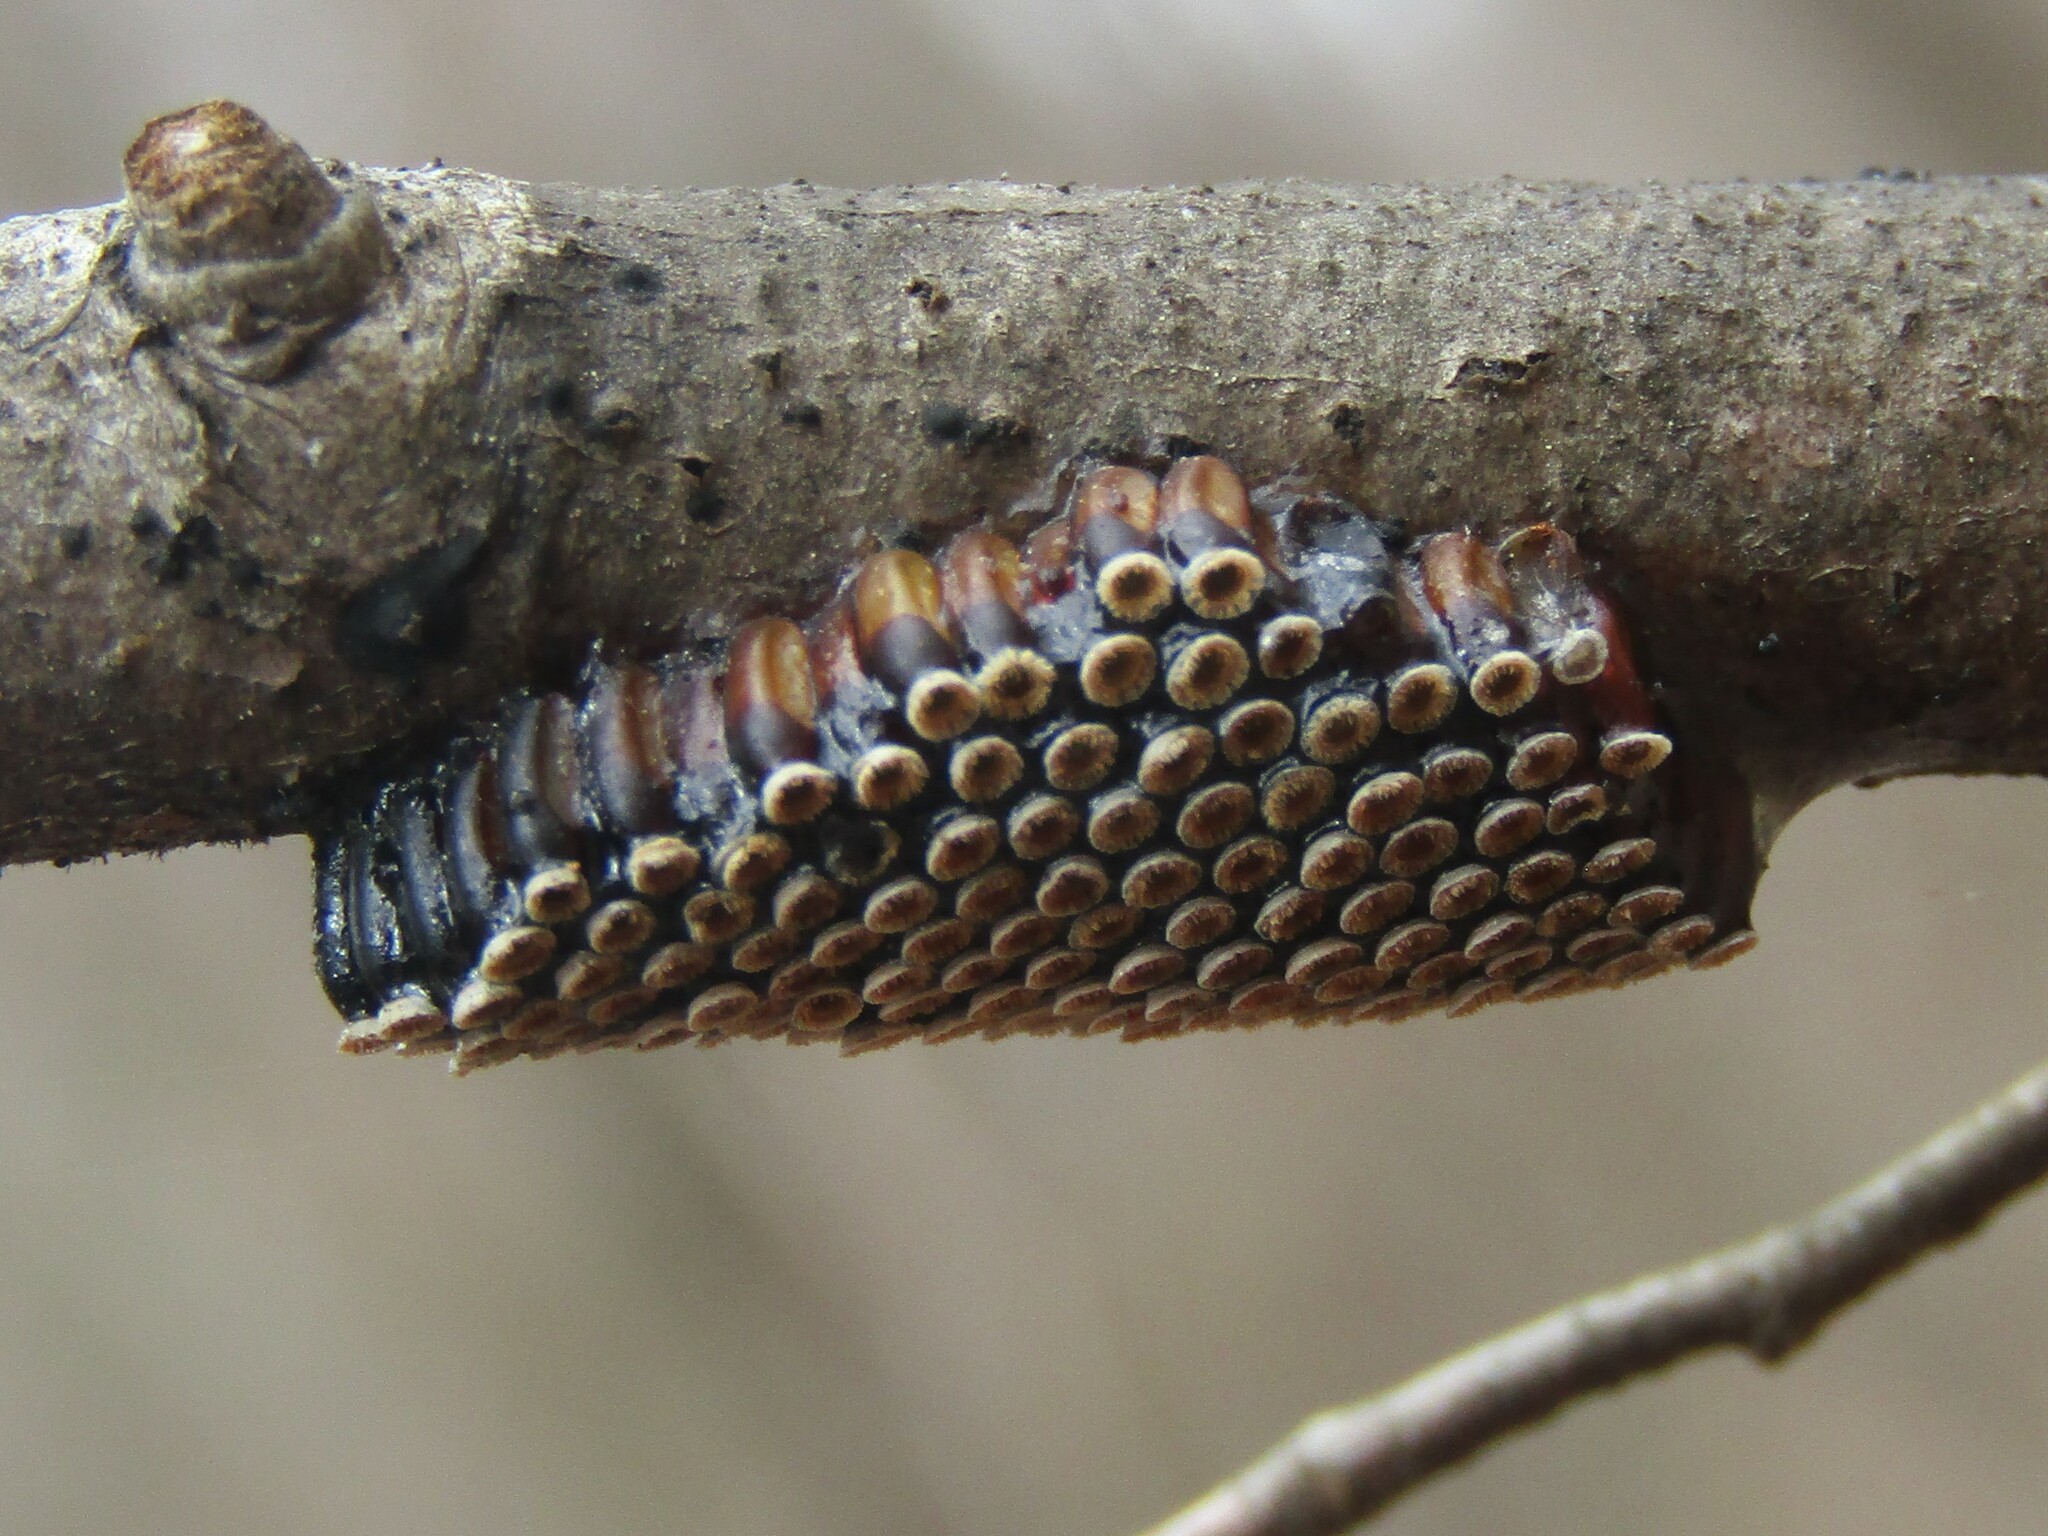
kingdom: Animalia
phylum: Arthropoda
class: Insecta
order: Hemiptera
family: Reduviidae
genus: Arilus
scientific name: Arilus cristatus
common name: North american wheel bug
